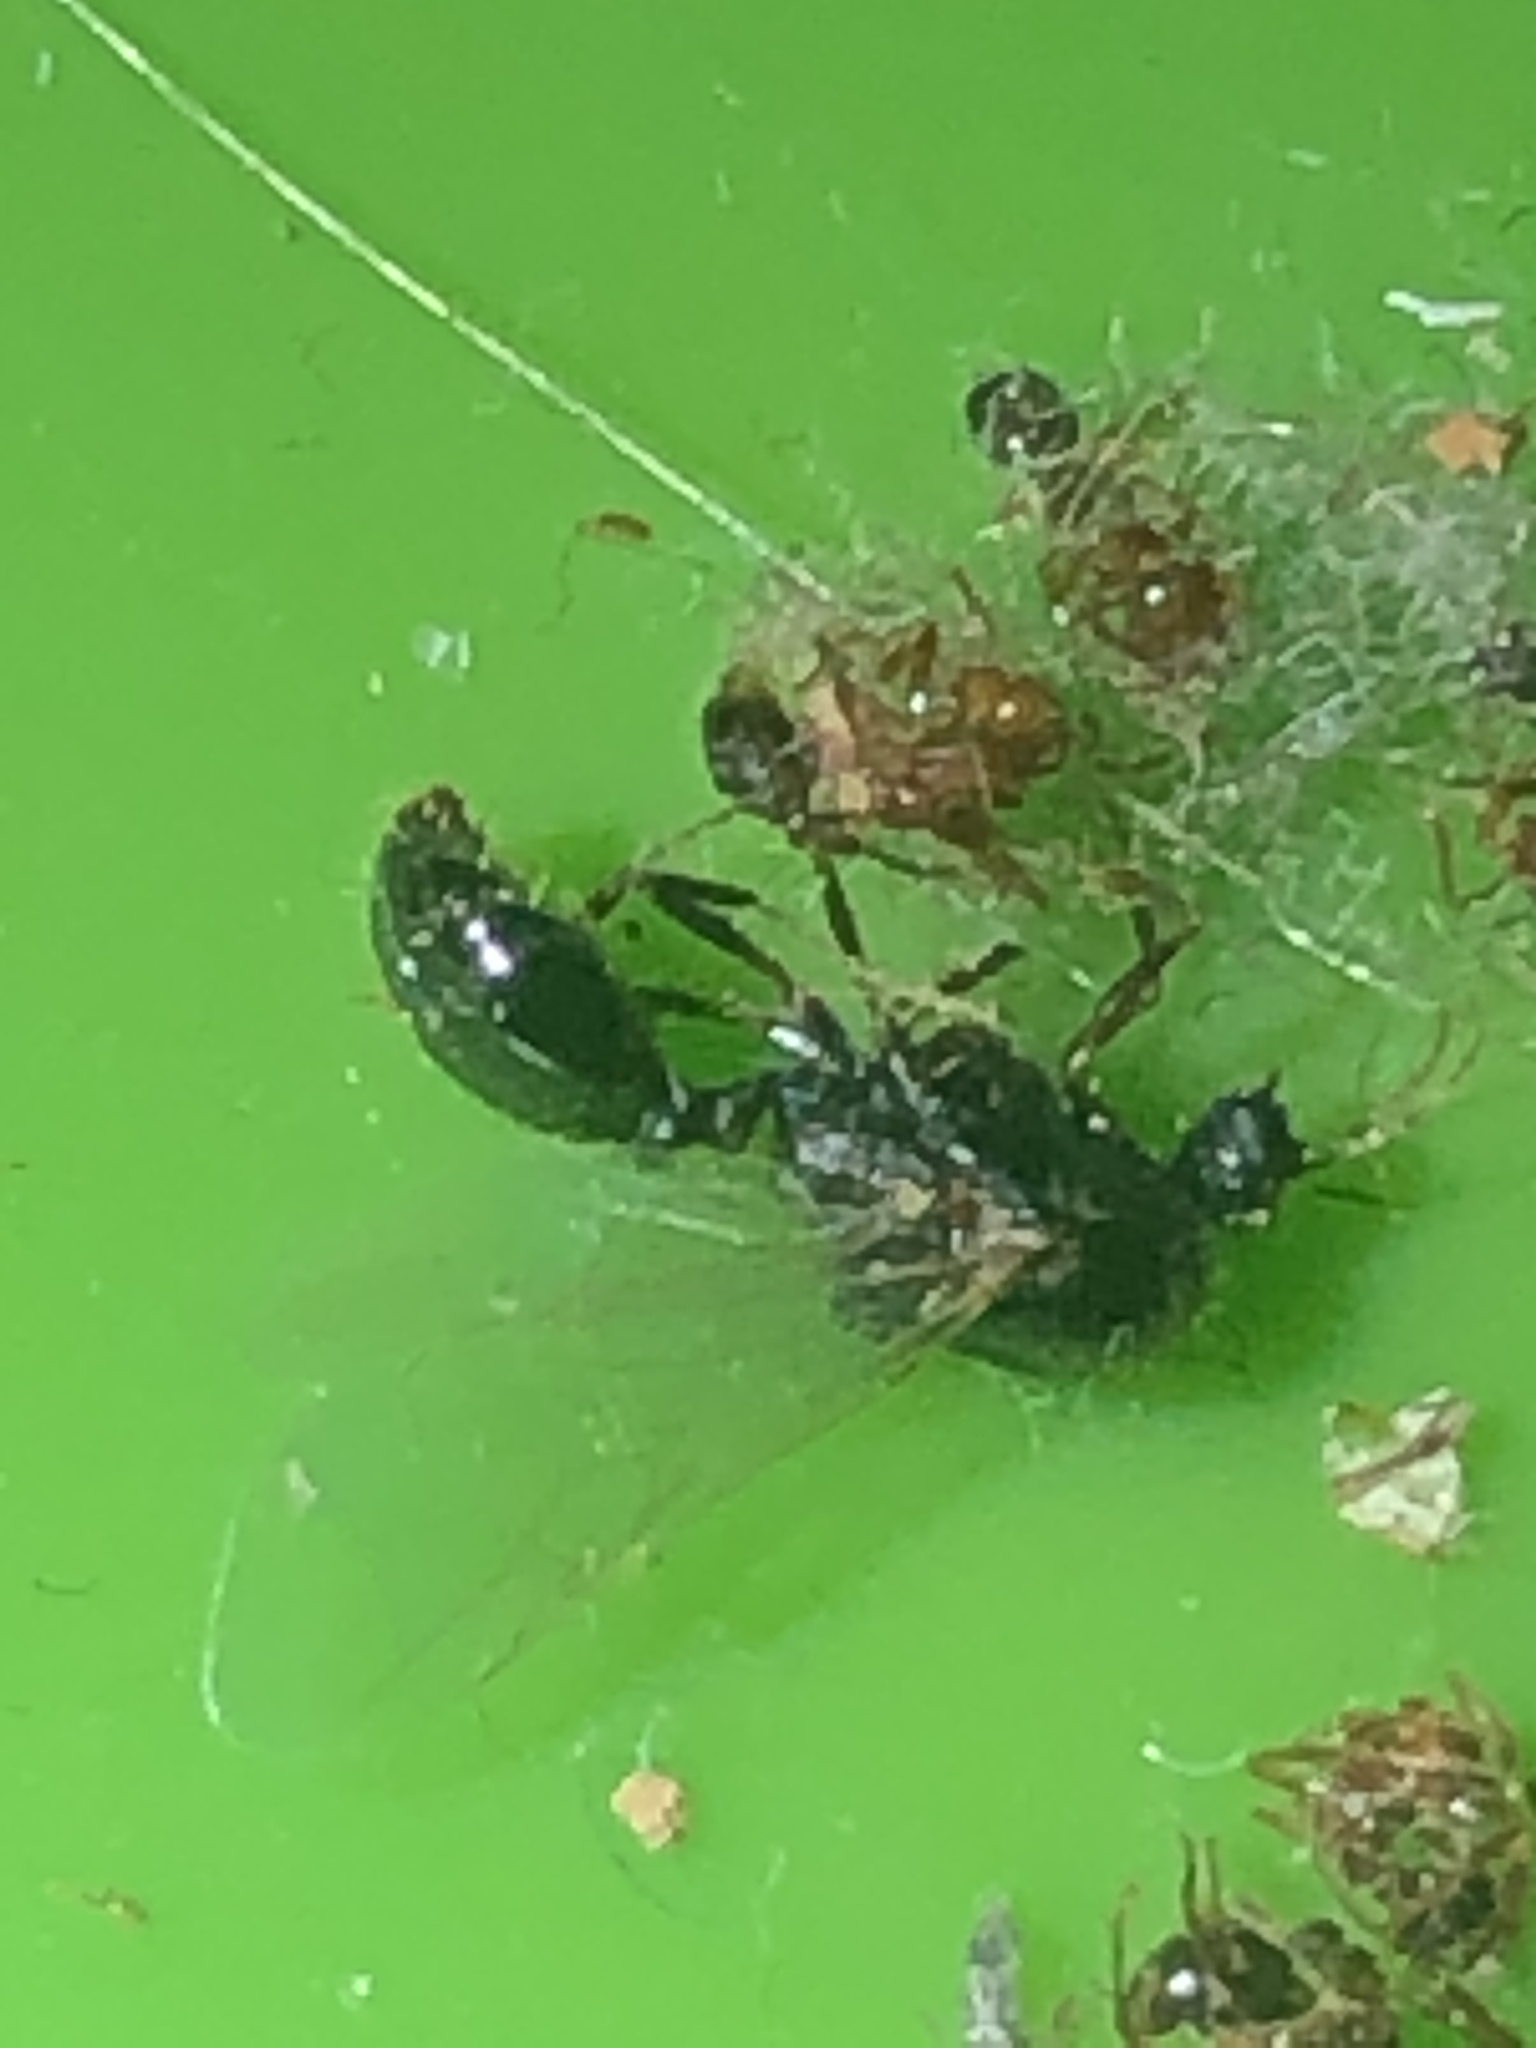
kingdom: Animalia
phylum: Arthropoda
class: Insecta
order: Hymenoptera
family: Formicidae
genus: Solenopsis
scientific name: Solenopsis invicta
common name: Red imported fire ant
